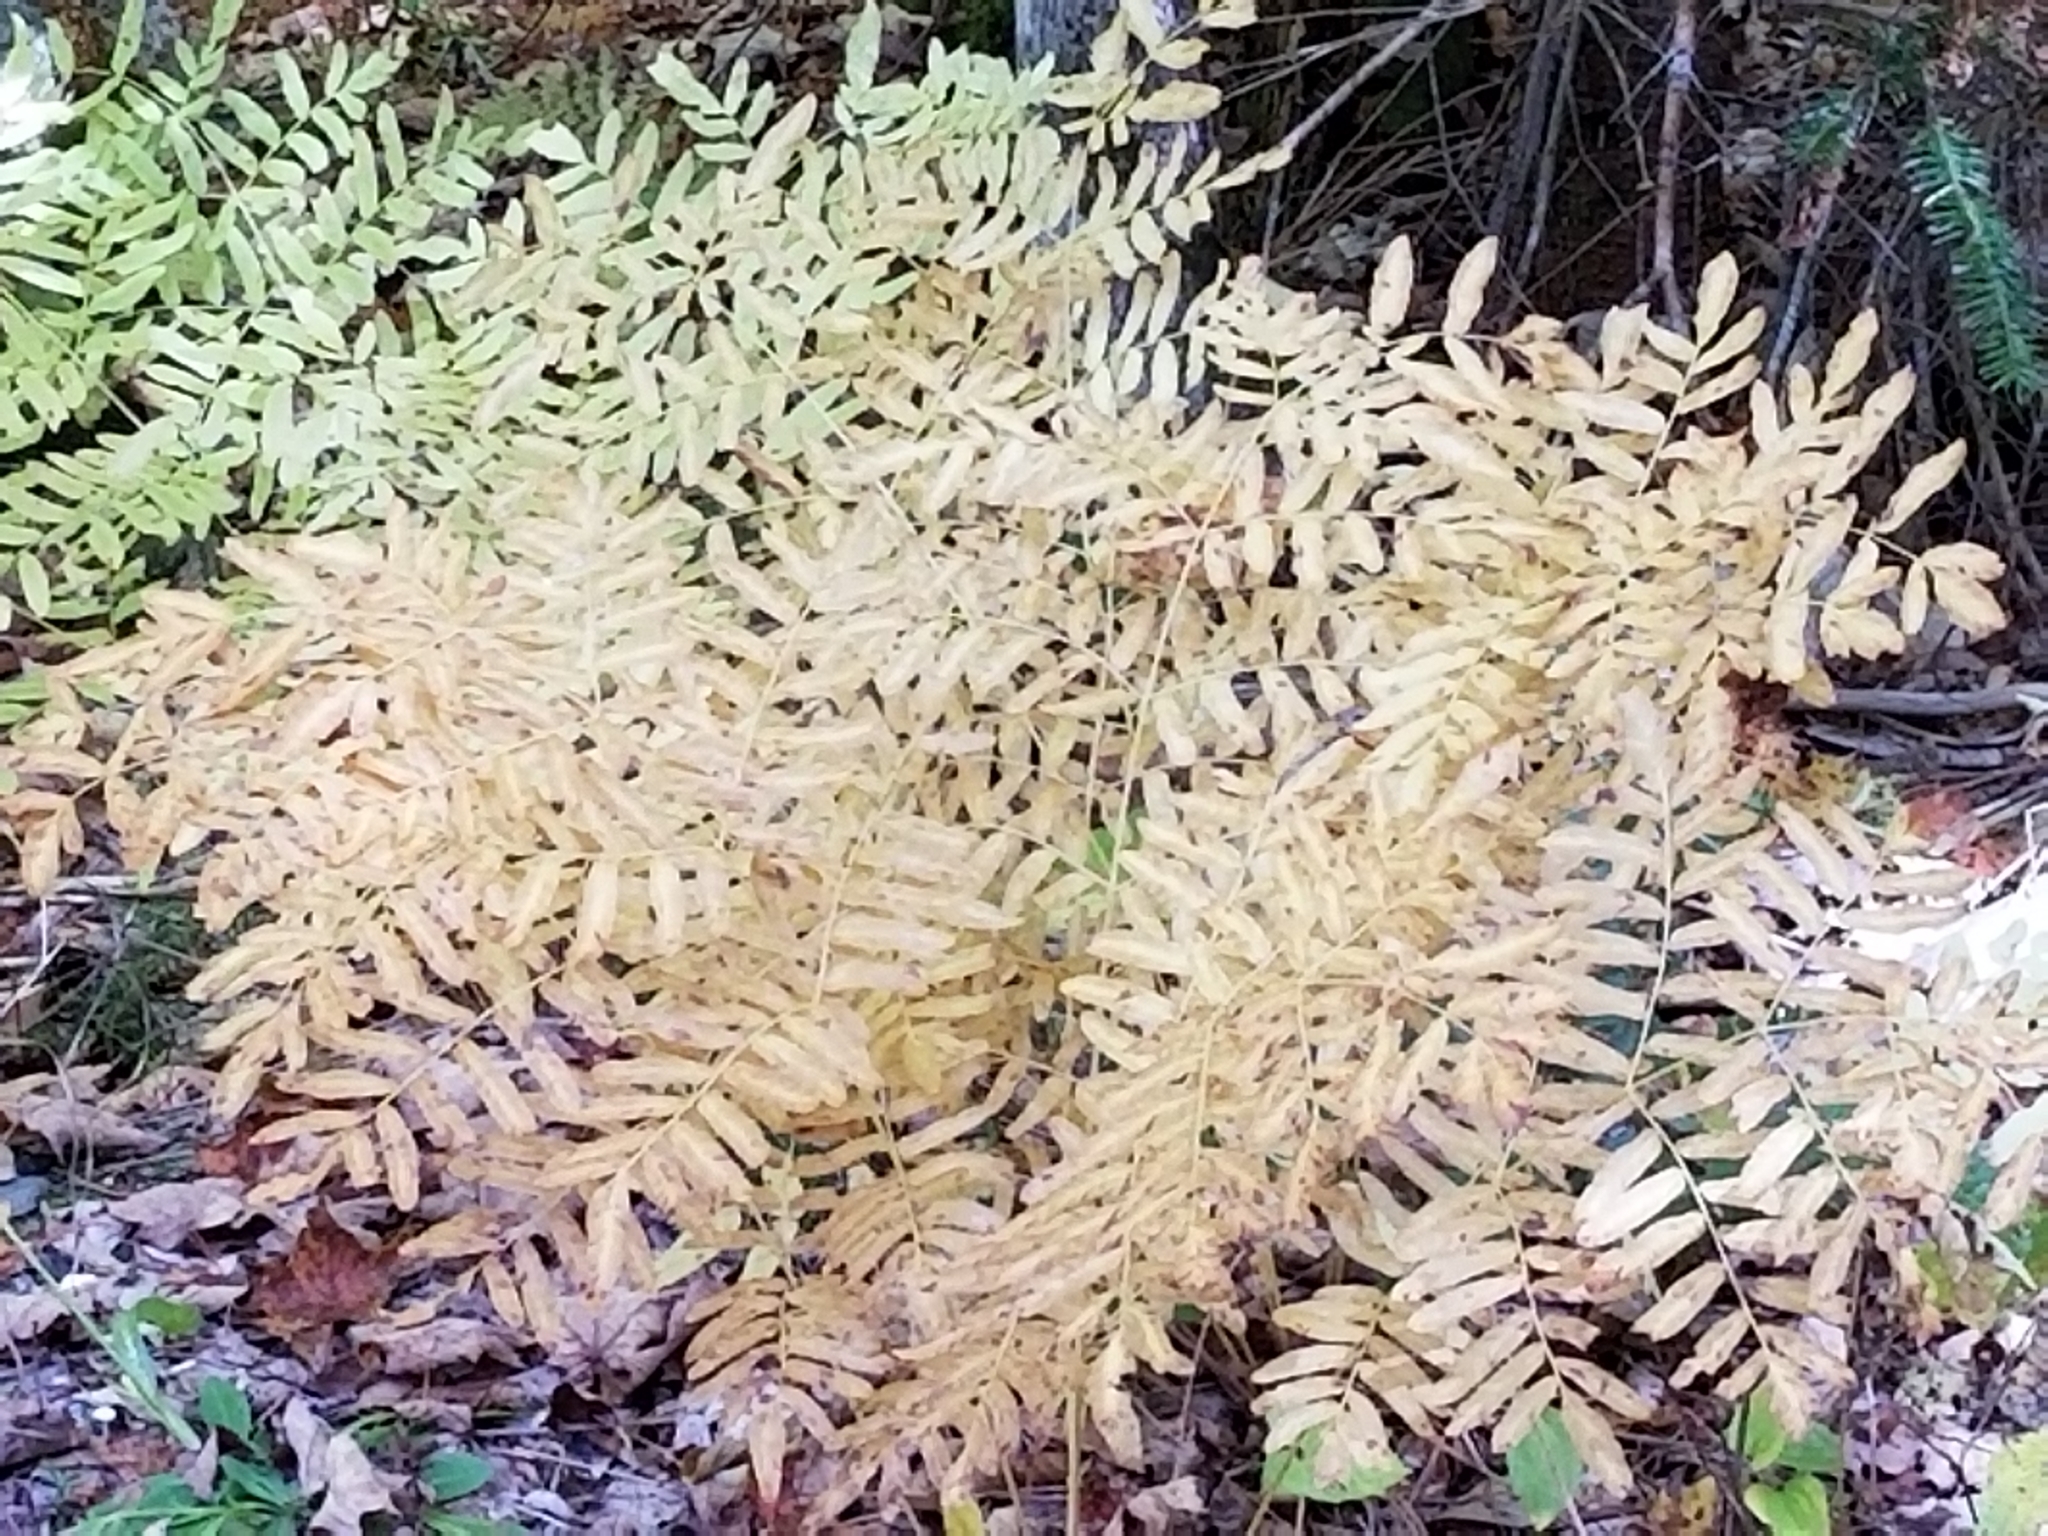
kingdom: Plantae
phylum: Tracheophyta
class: Polypodiopsida
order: Osmundales
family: Osmundaceae
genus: Osmunda
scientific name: Osmunda spectabilis
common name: American royal fern
